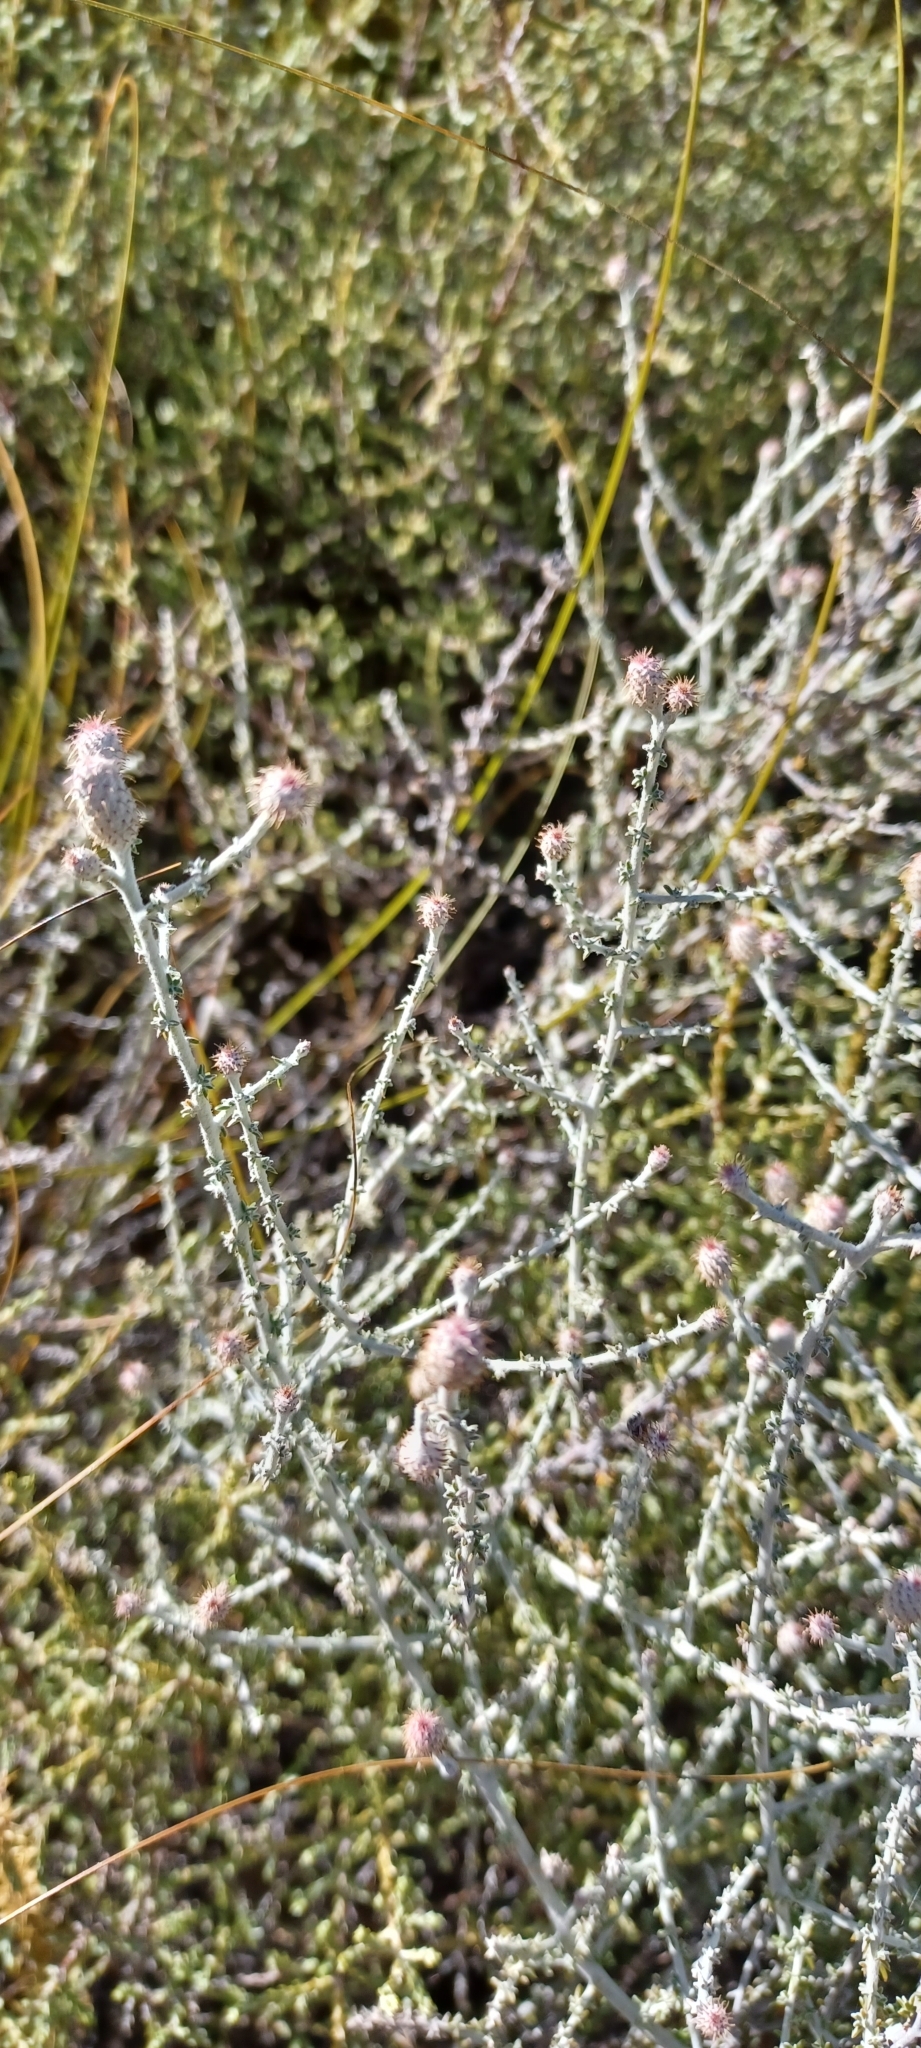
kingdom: Plantae
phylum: Tracheophyta
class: Magnoliopsida
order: Asterales
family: Asteraceae
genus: Lachnospermum
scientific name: Lachnospermum neglectum
